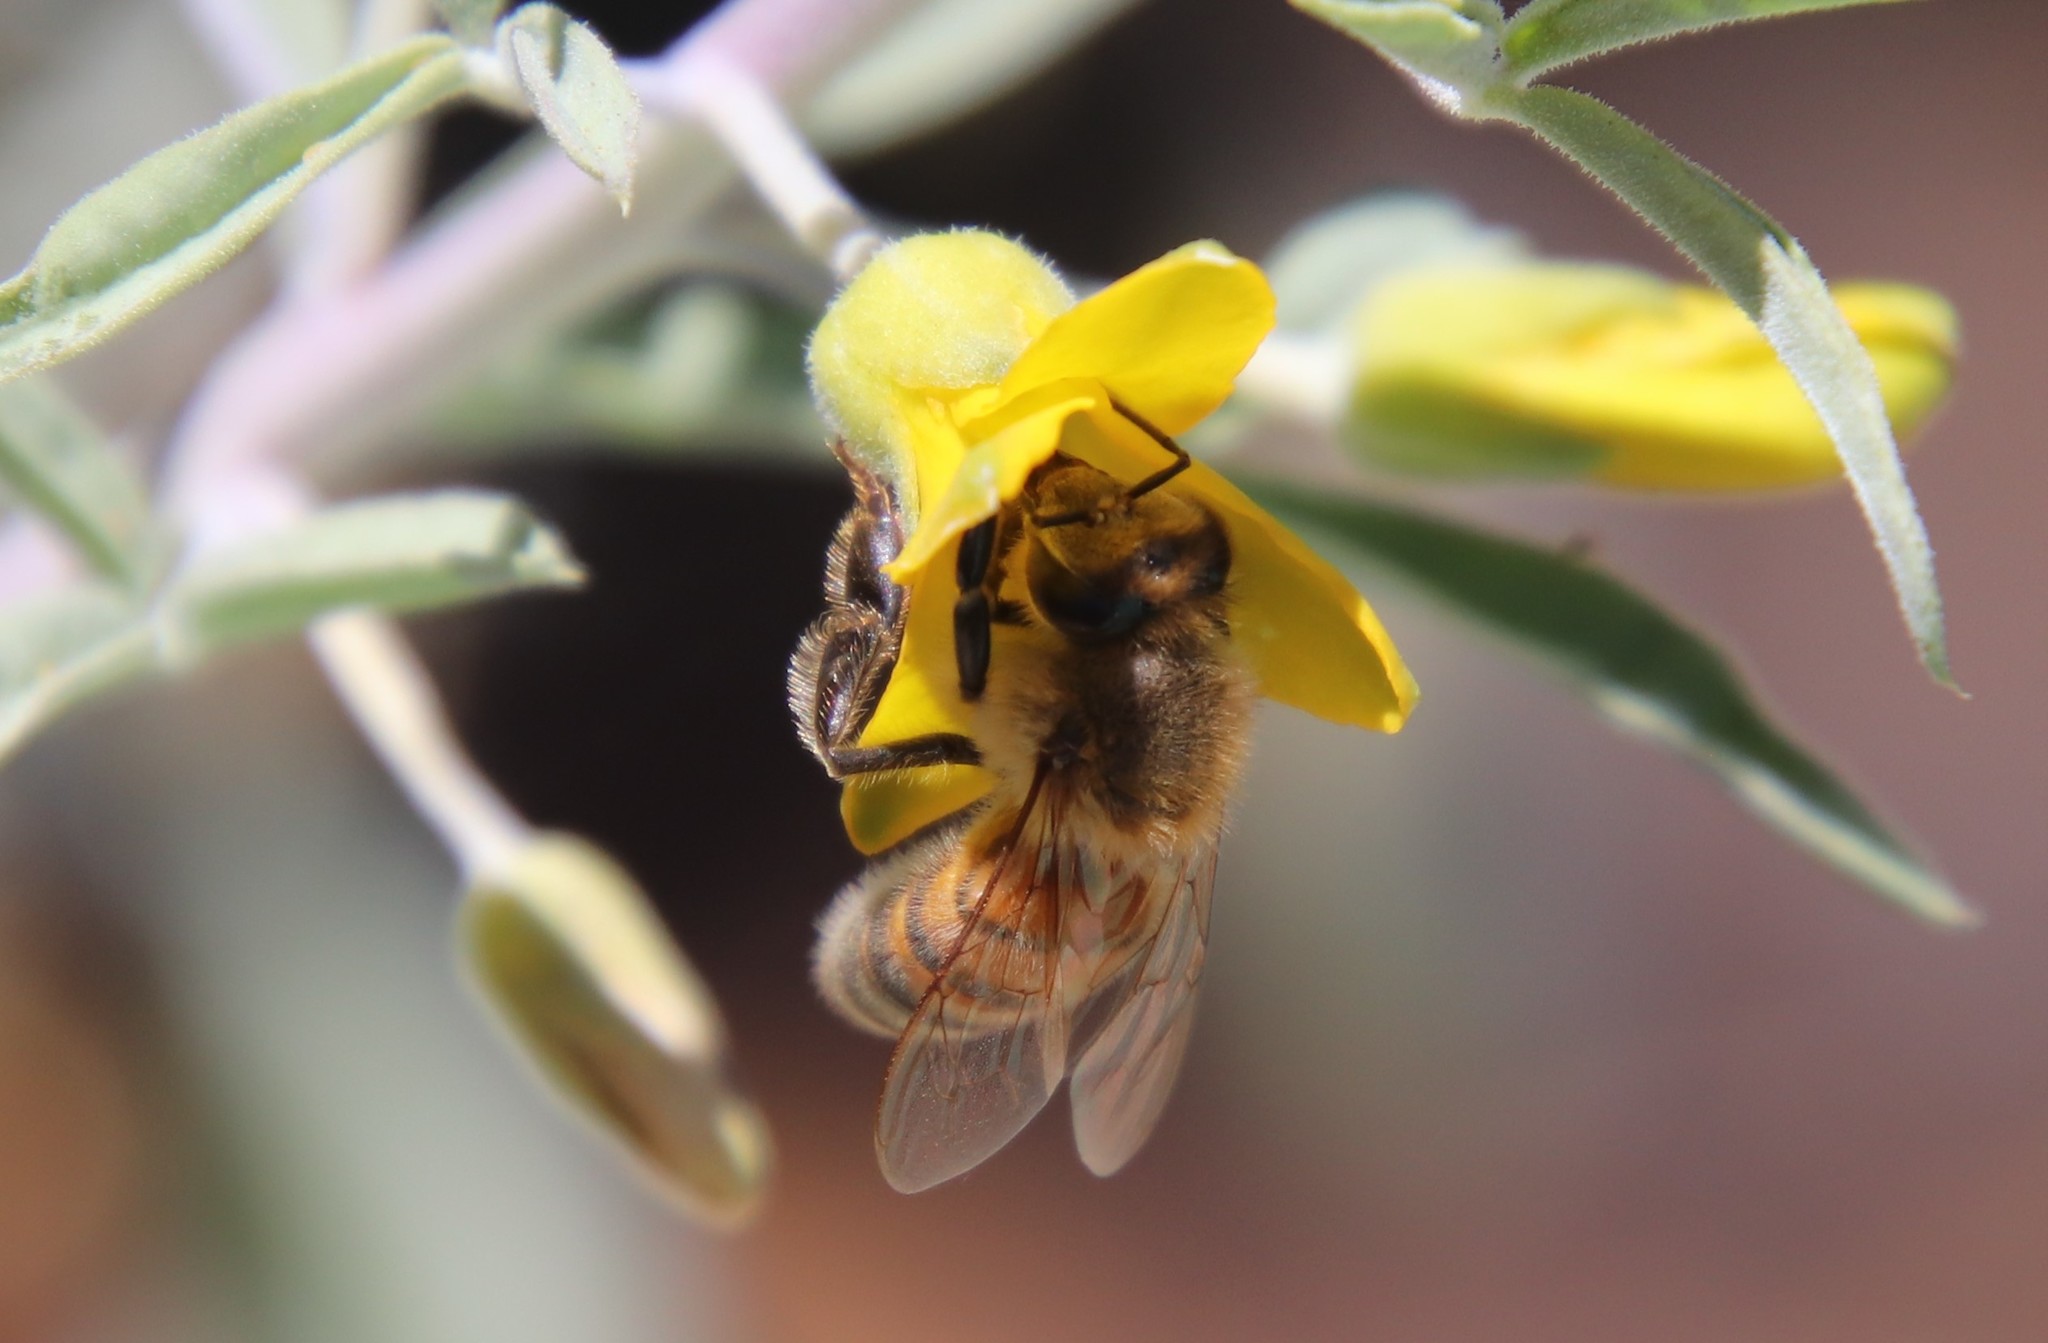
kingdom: Animalia
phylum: Arthropoda
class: Insecta
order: Hymenoptera
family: Apidae
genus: Apis
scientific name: Apis mellifera
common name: Honey bee
